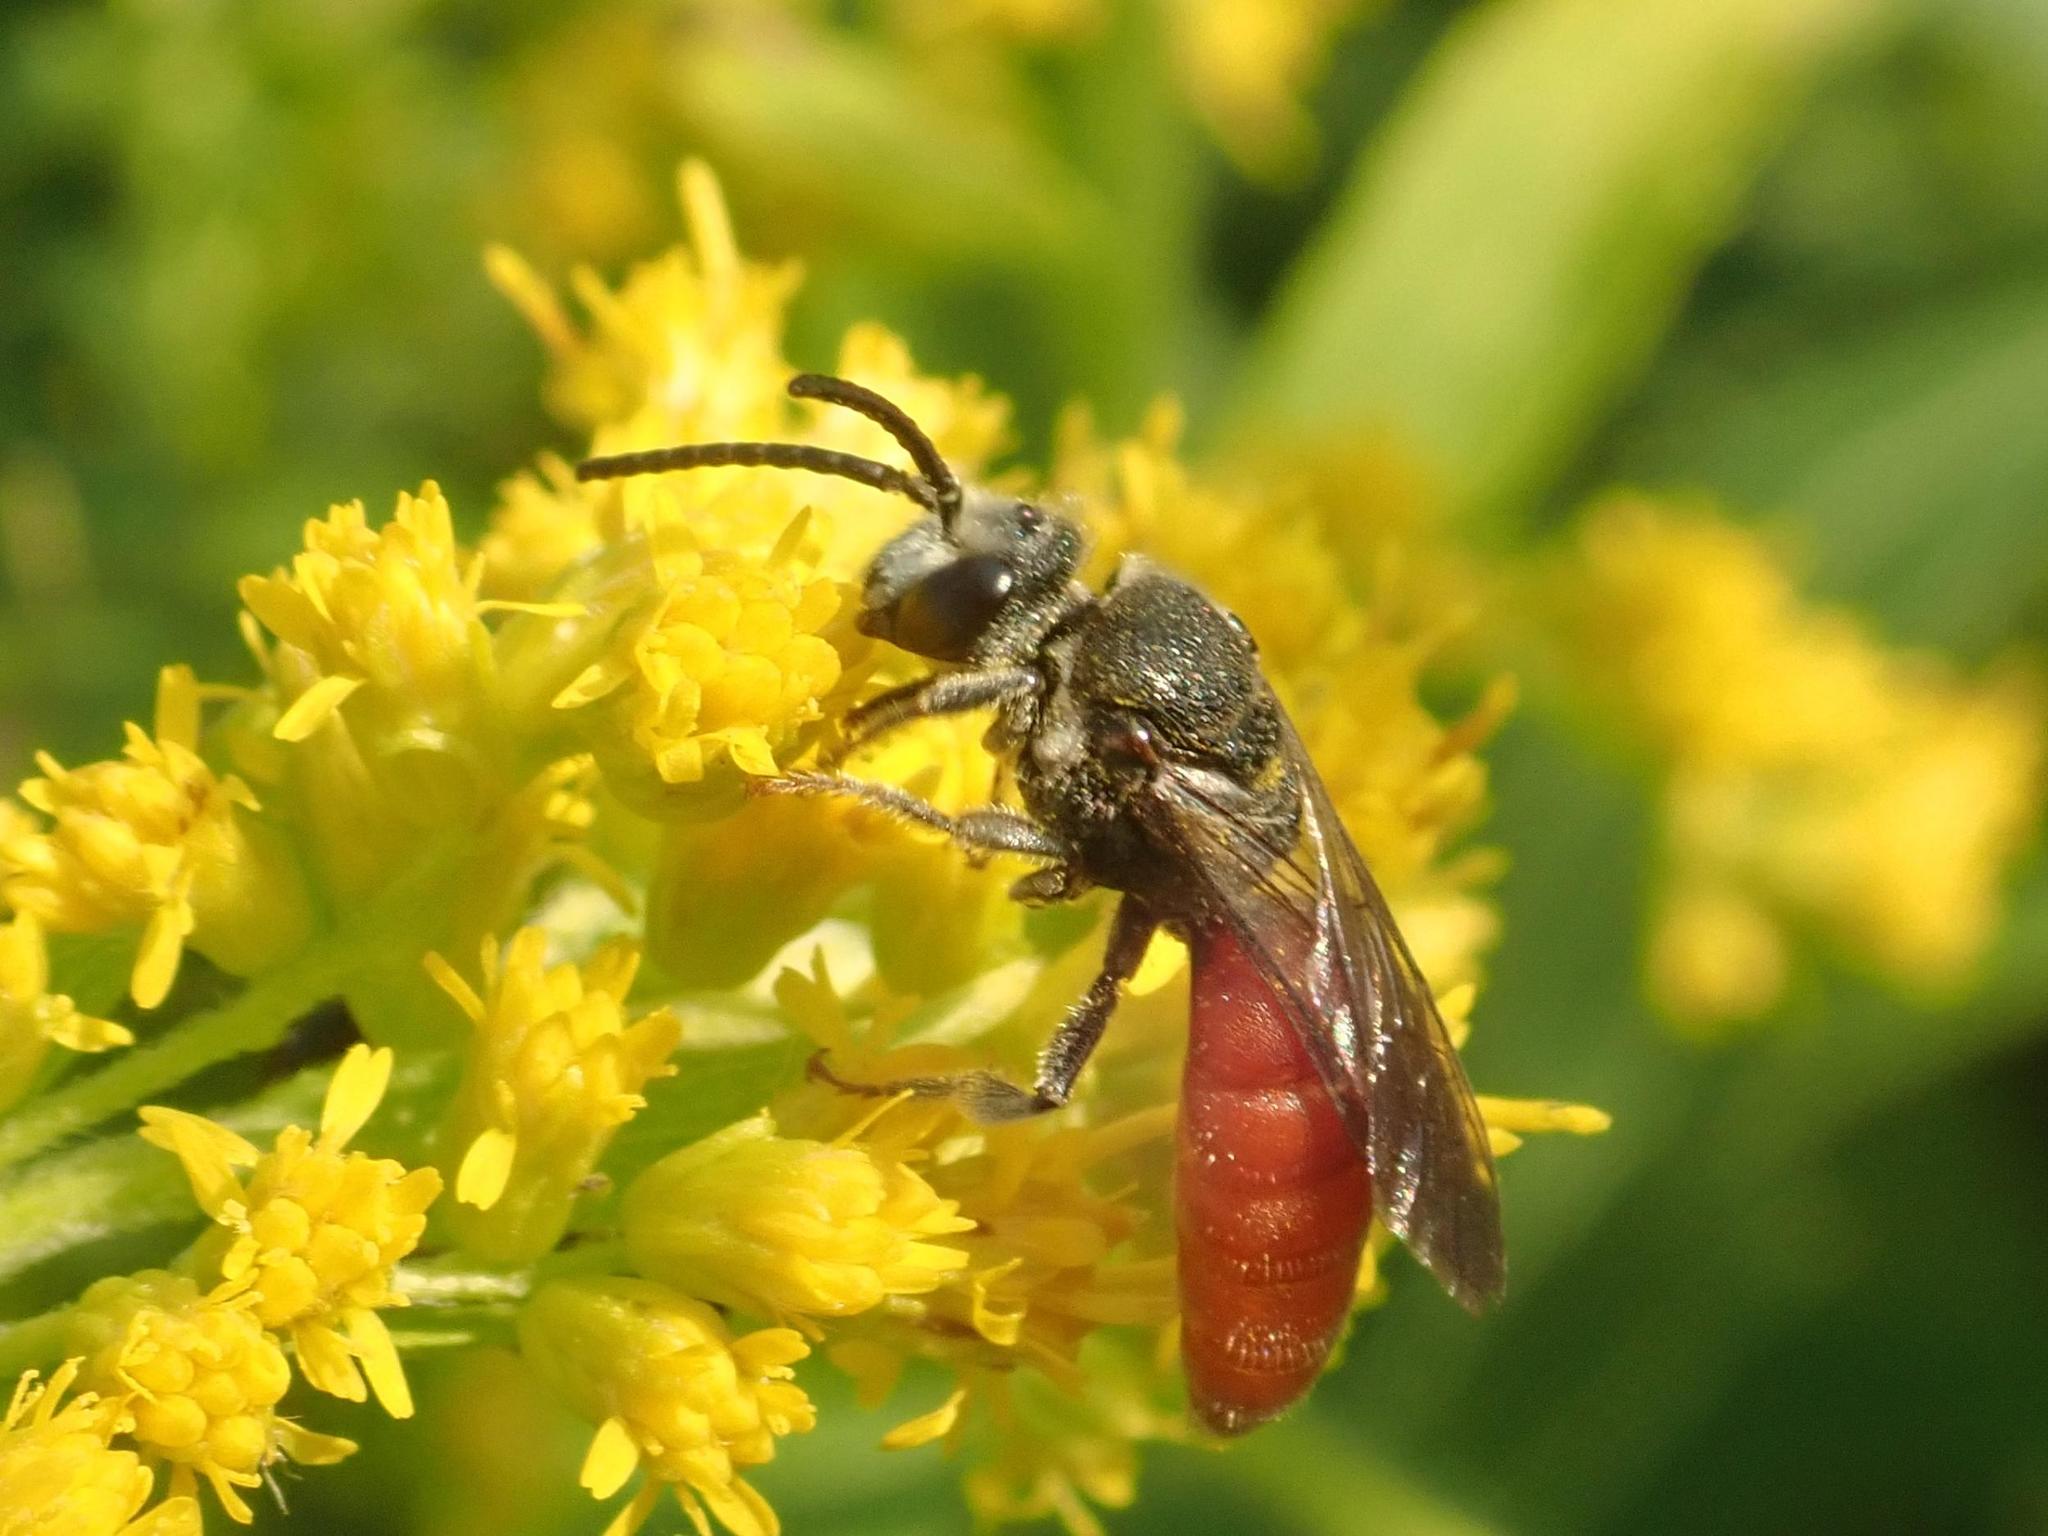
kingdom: Animalia
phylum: Arthropoda
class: Insecta
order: Hymenoptera
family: Halictidae
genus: Sphecodes
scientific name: Sphecodes albilabris
